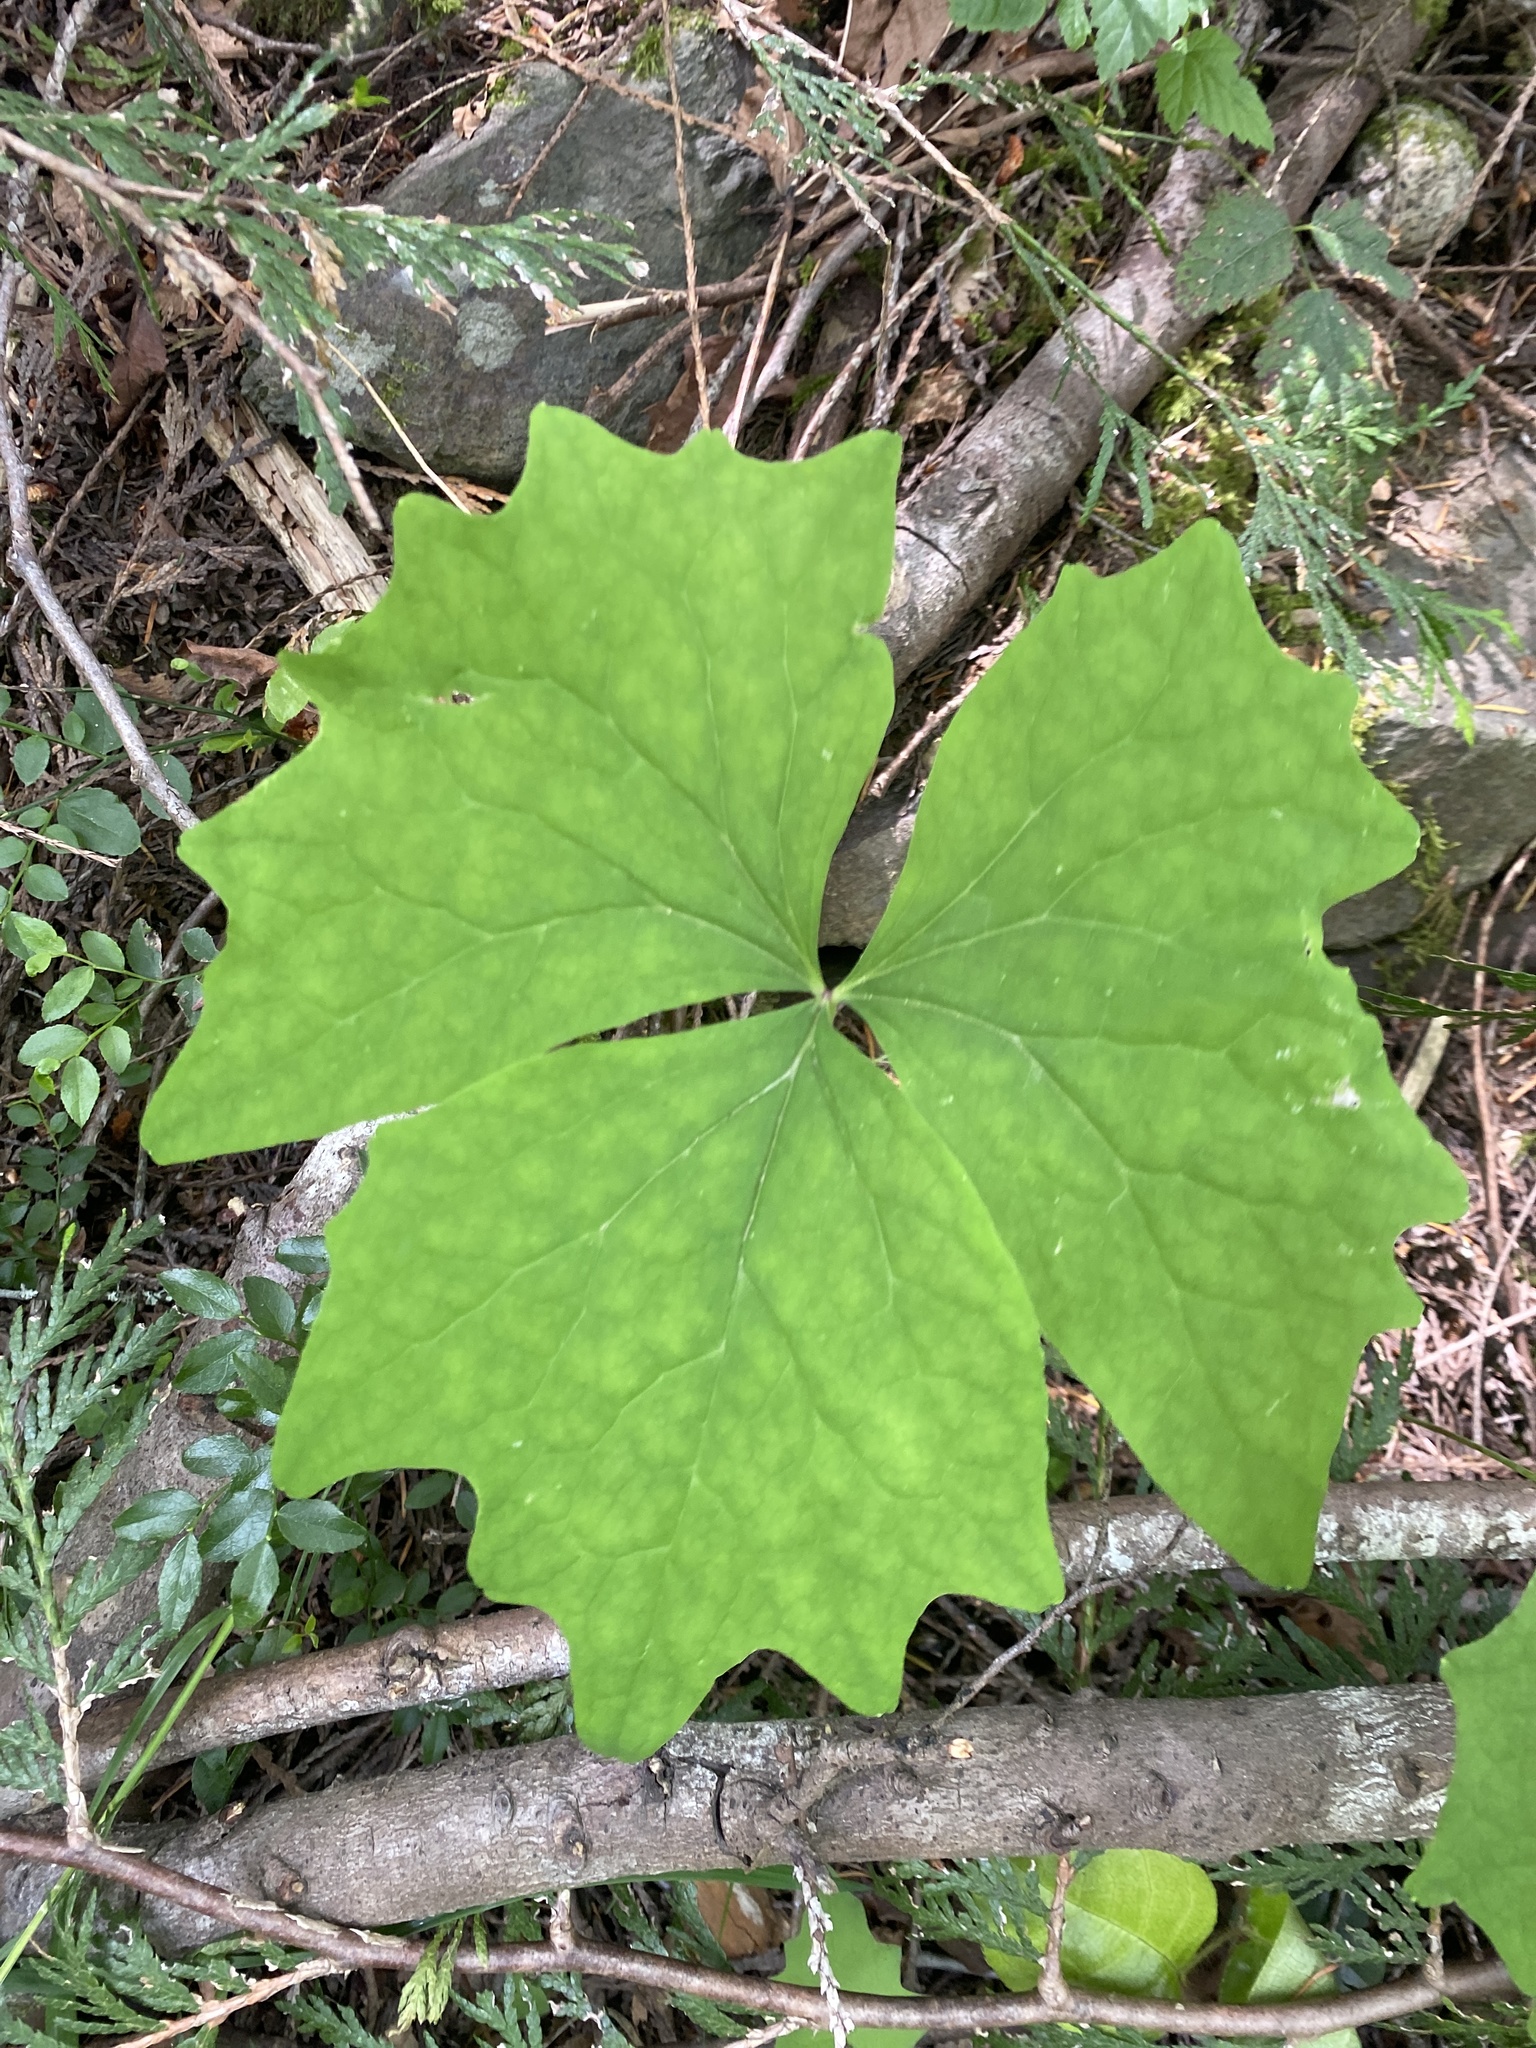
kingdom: Plantae
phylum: Tracheophyta
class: Magnoliopsida
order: Ranunculales
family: Berberidaceae
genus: Achlys
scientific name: Achlys triphylla
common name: Vanilla-leaf
